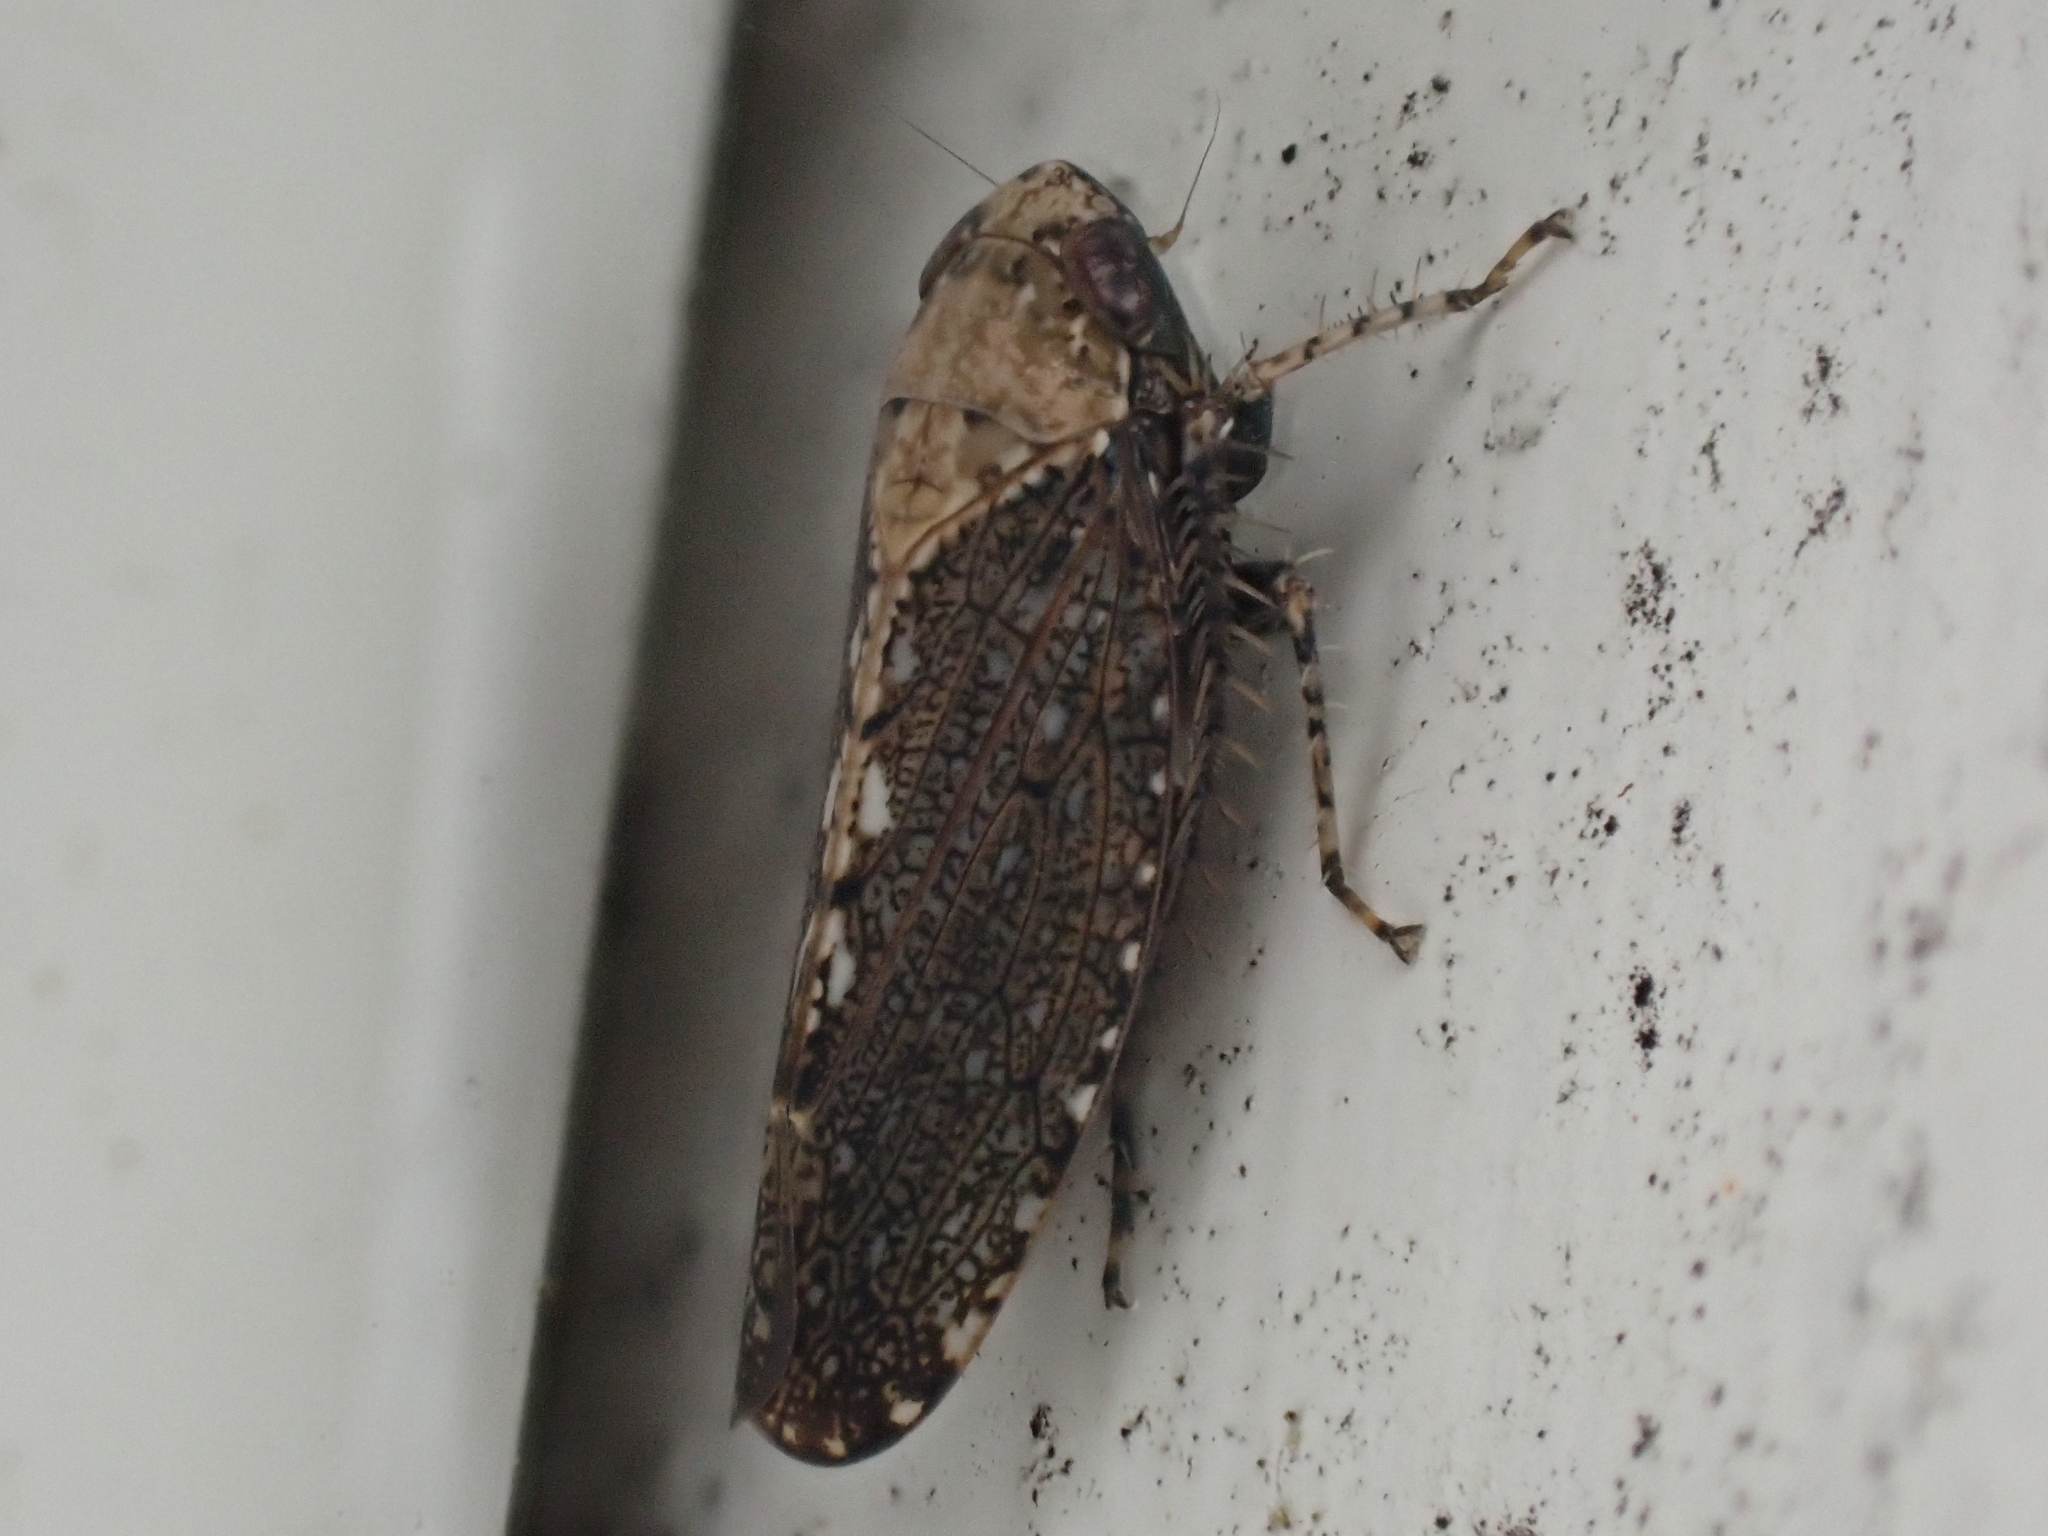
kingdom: Animalia
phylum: Arthropoda
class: Insecta
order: Hemiptera
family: Cicadellidae
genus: Excultanus
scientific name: Excultanus excultus
